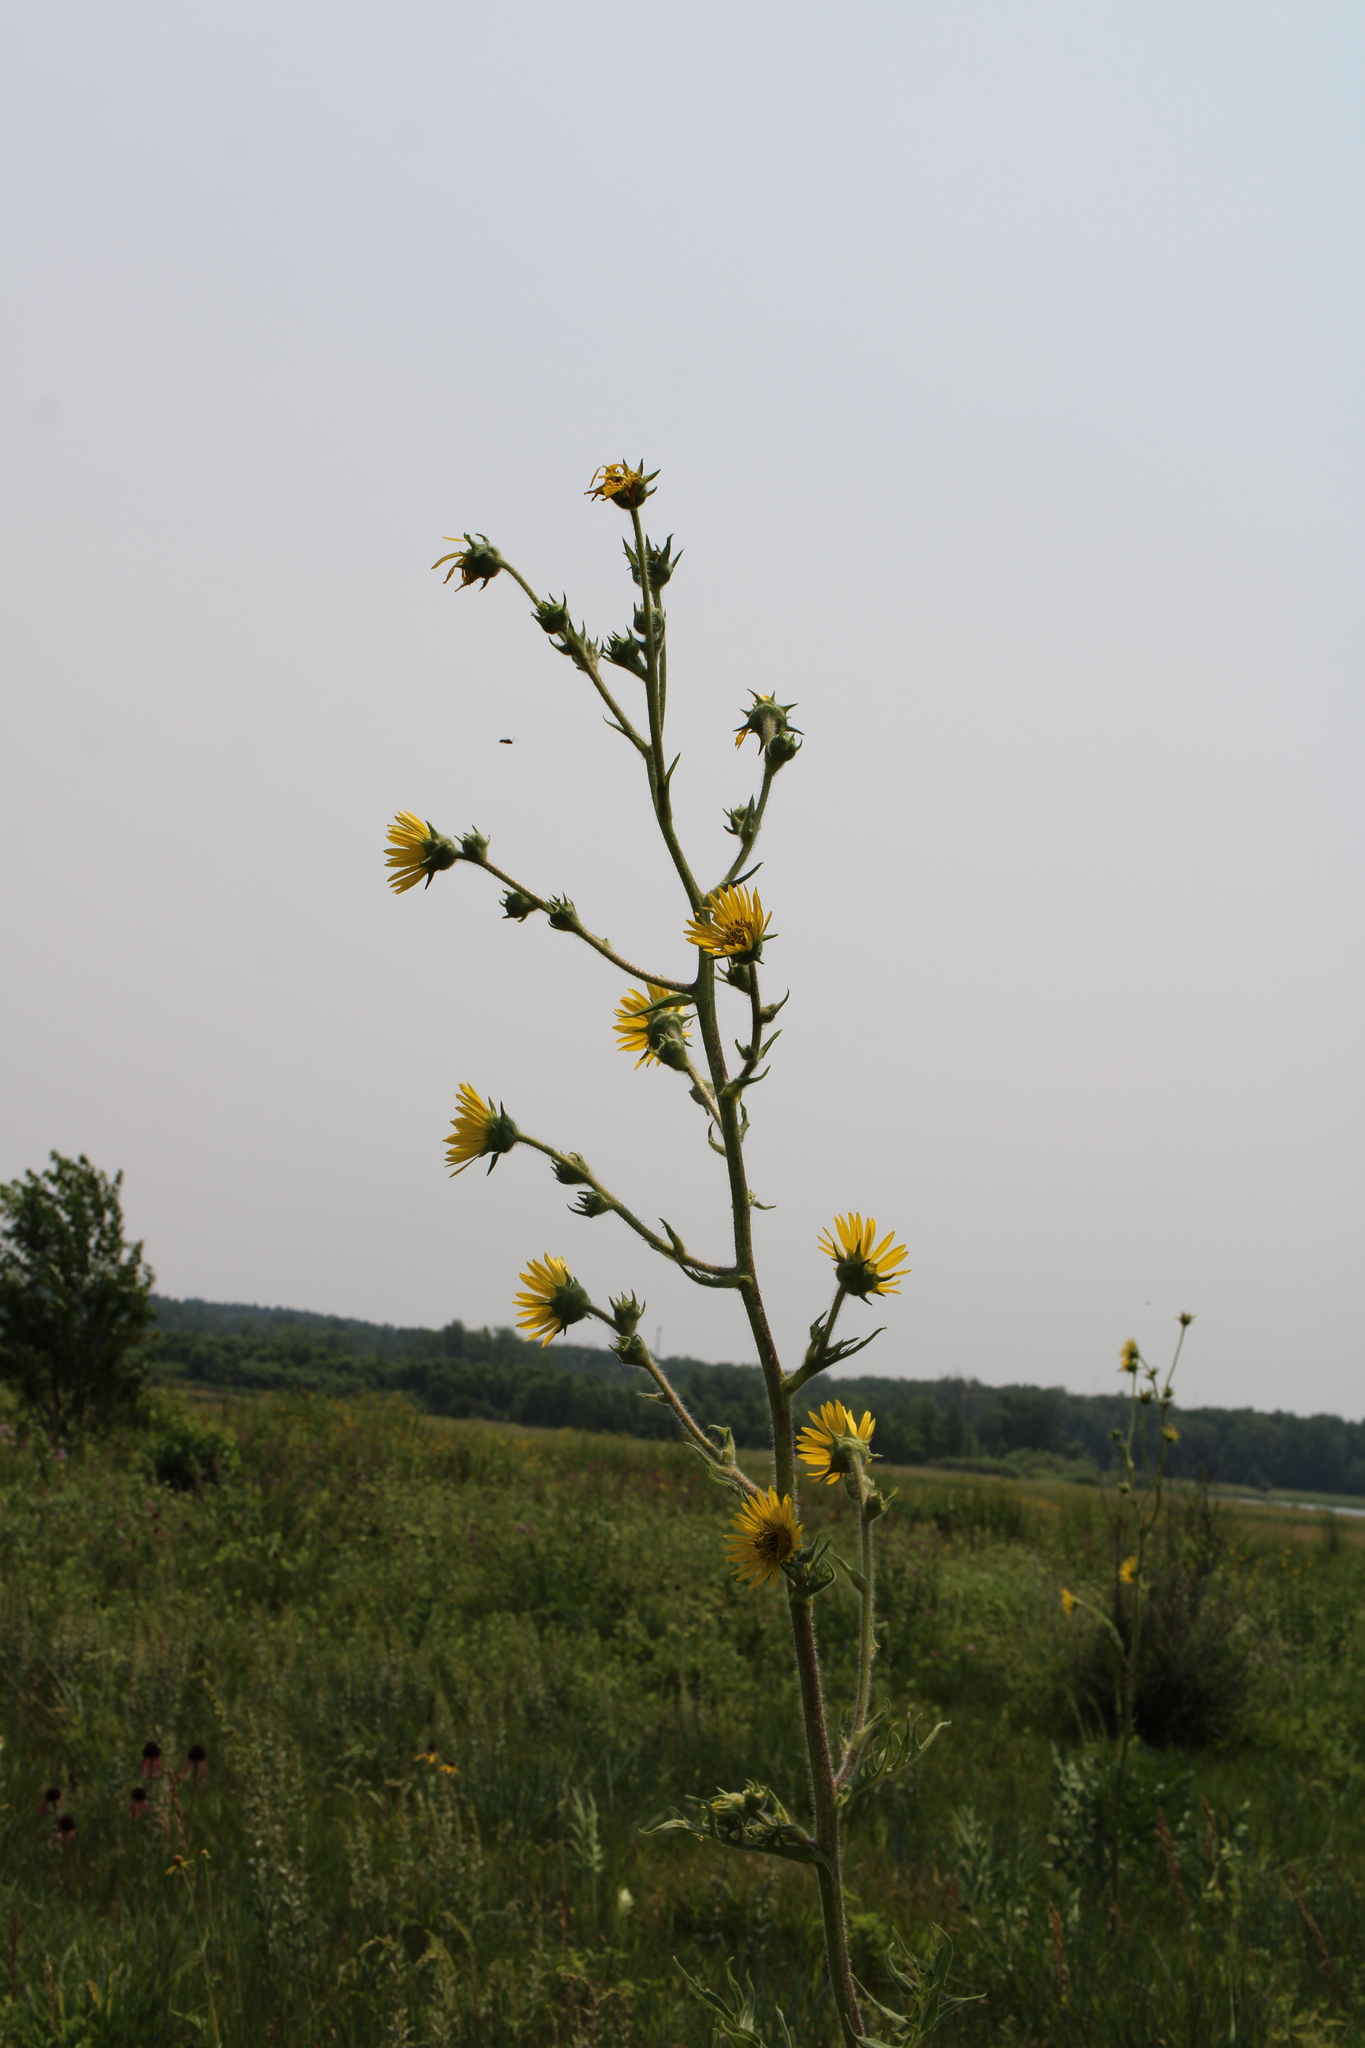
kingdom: Plantae
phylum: Tracheophyta
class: Magnoliopsida
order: Asterales
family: Asteraceae
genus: Silphium
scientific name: Silphium laciniatum
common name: Polarplant
